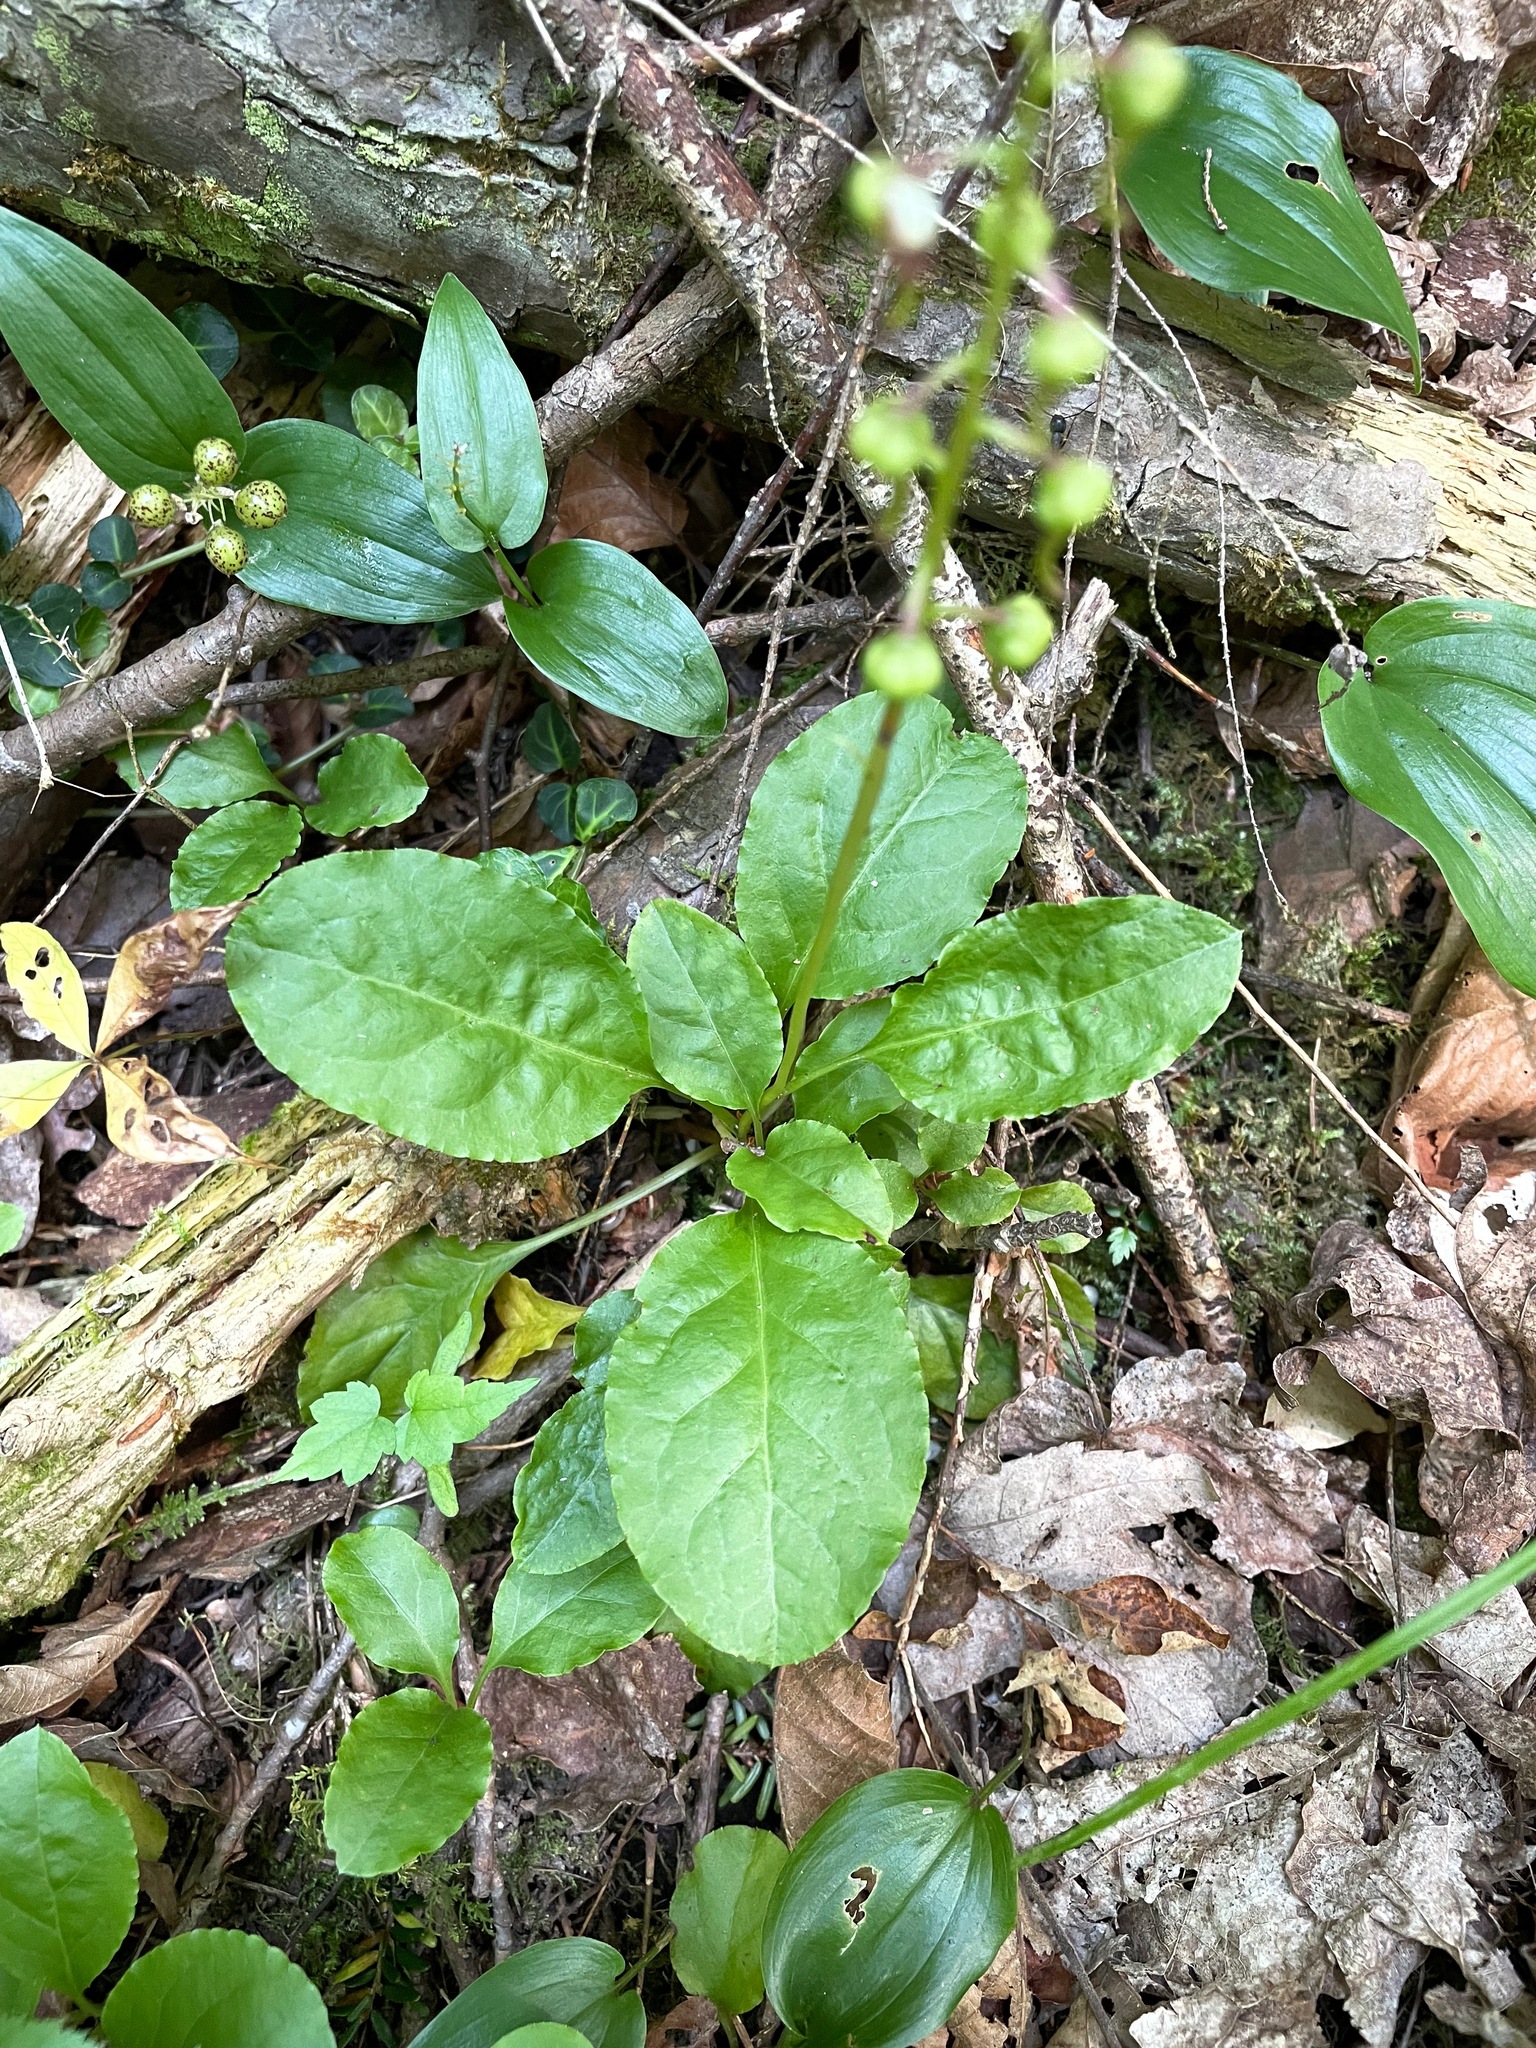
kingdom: Plantae
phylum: Tracheophyta
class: Magnoliopsida
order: Ericales
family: Ericaceae
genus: Pyrola
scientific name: Pyrola elliptica
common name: Shinleaf
